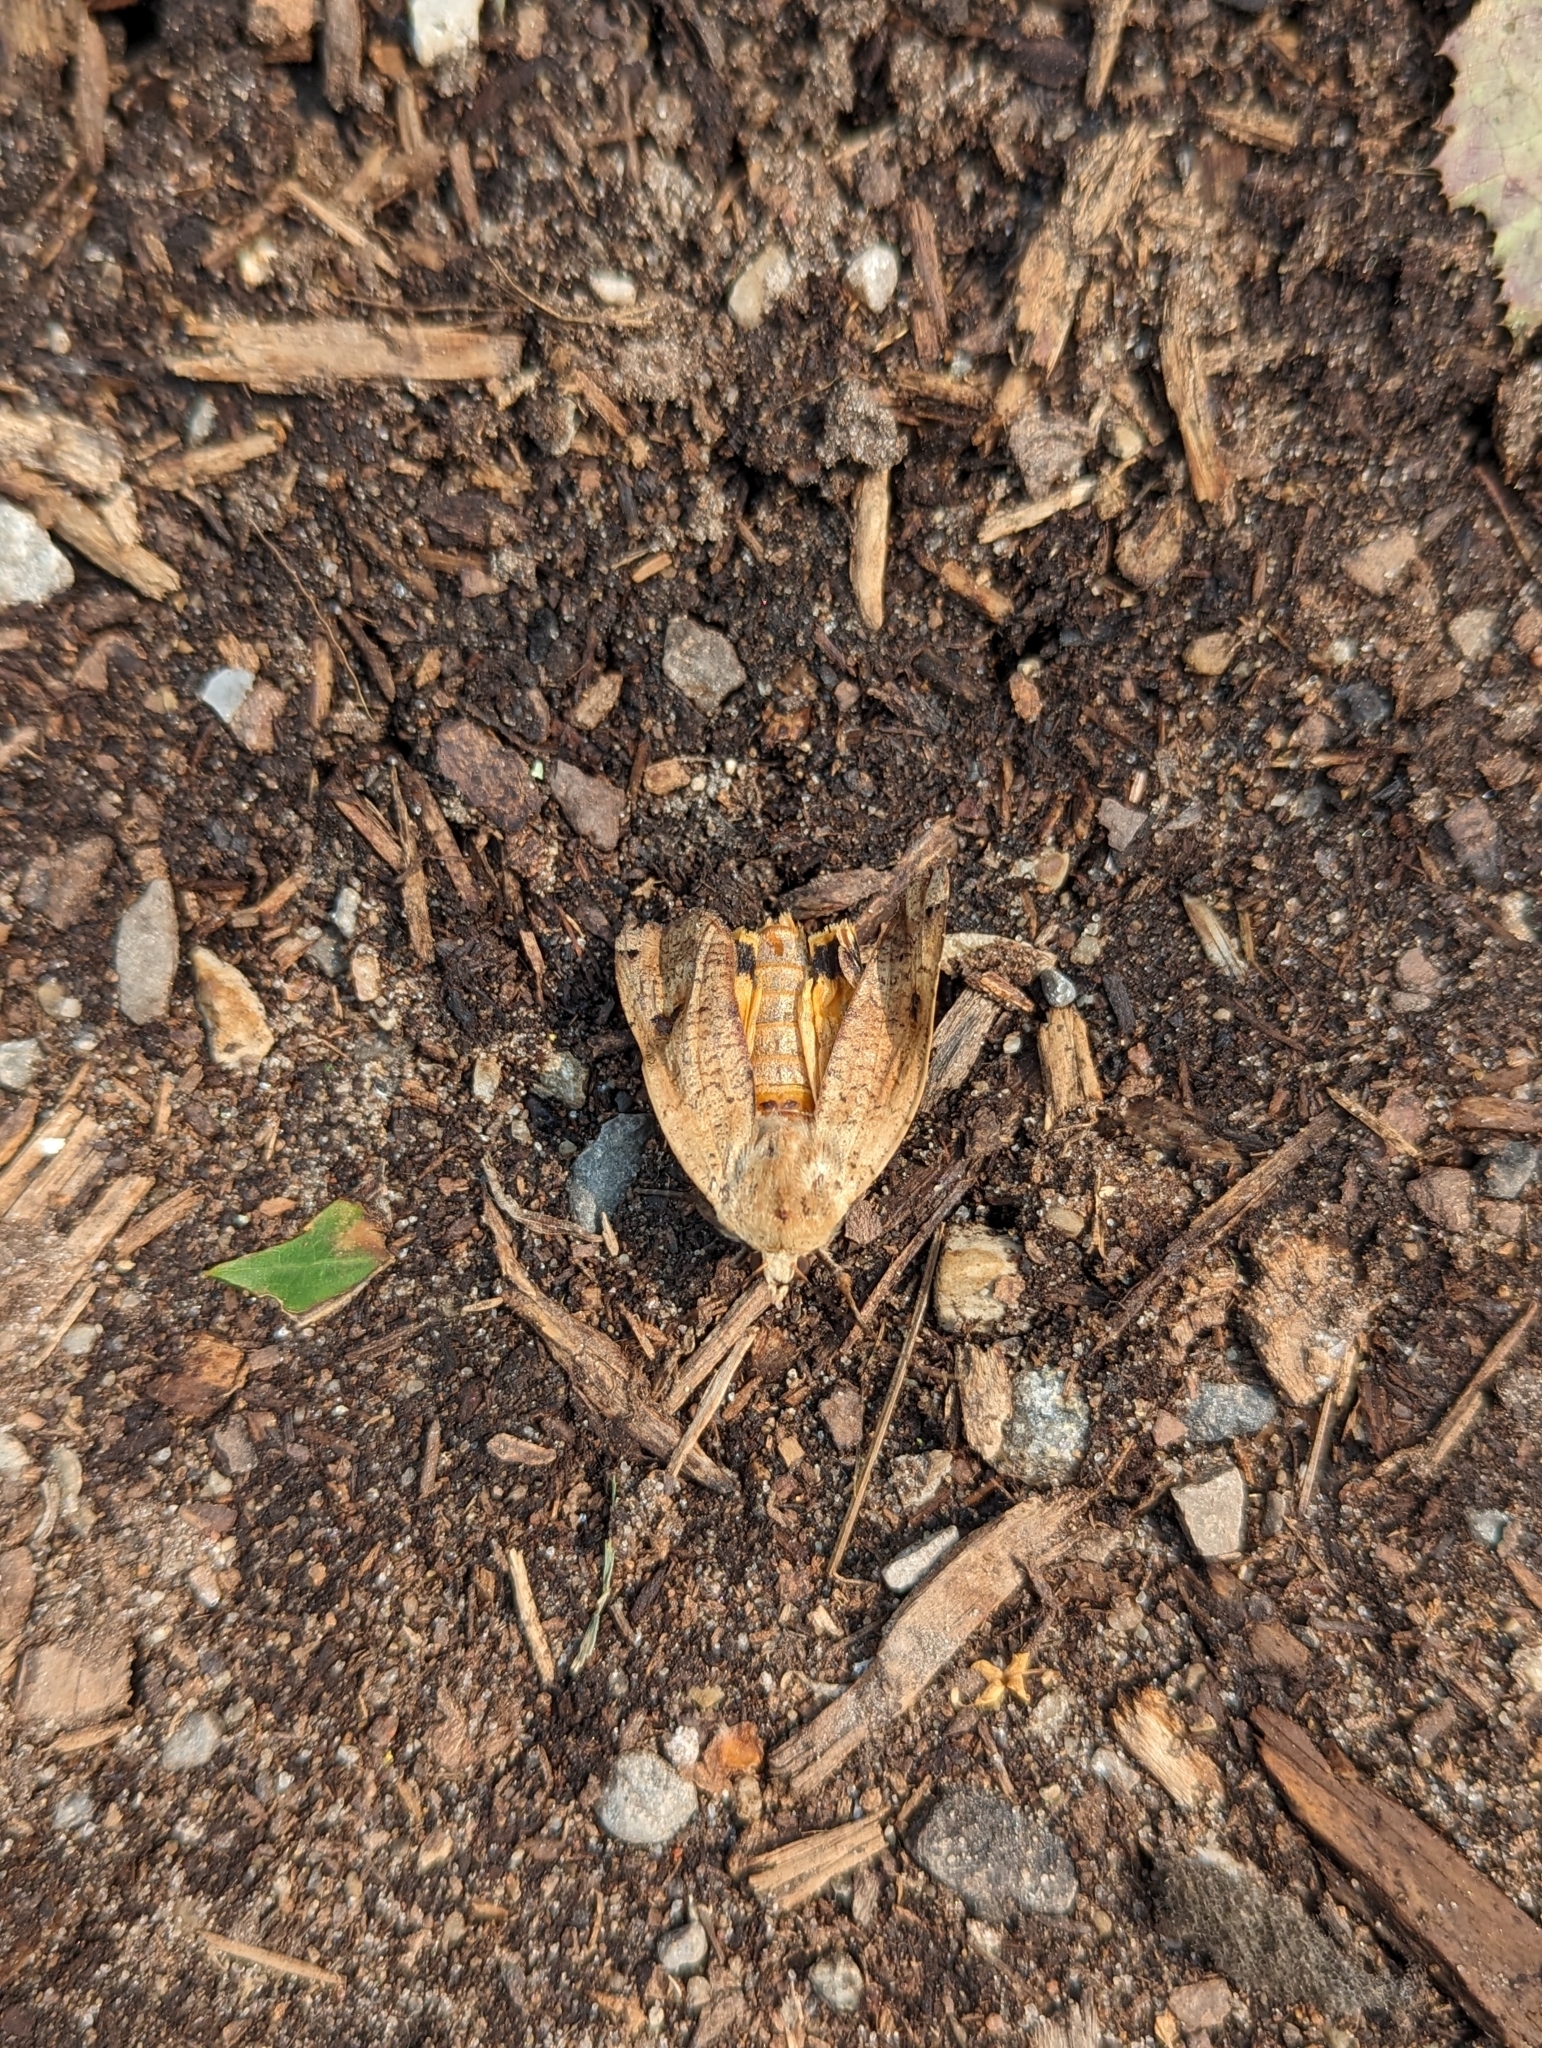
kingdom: Animalia
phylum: Arthropoda
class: Insecta
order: Lepidoptera
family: Noctuidae
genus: Noctua
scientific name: Noctua pronuba
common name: Large yellow underwing
